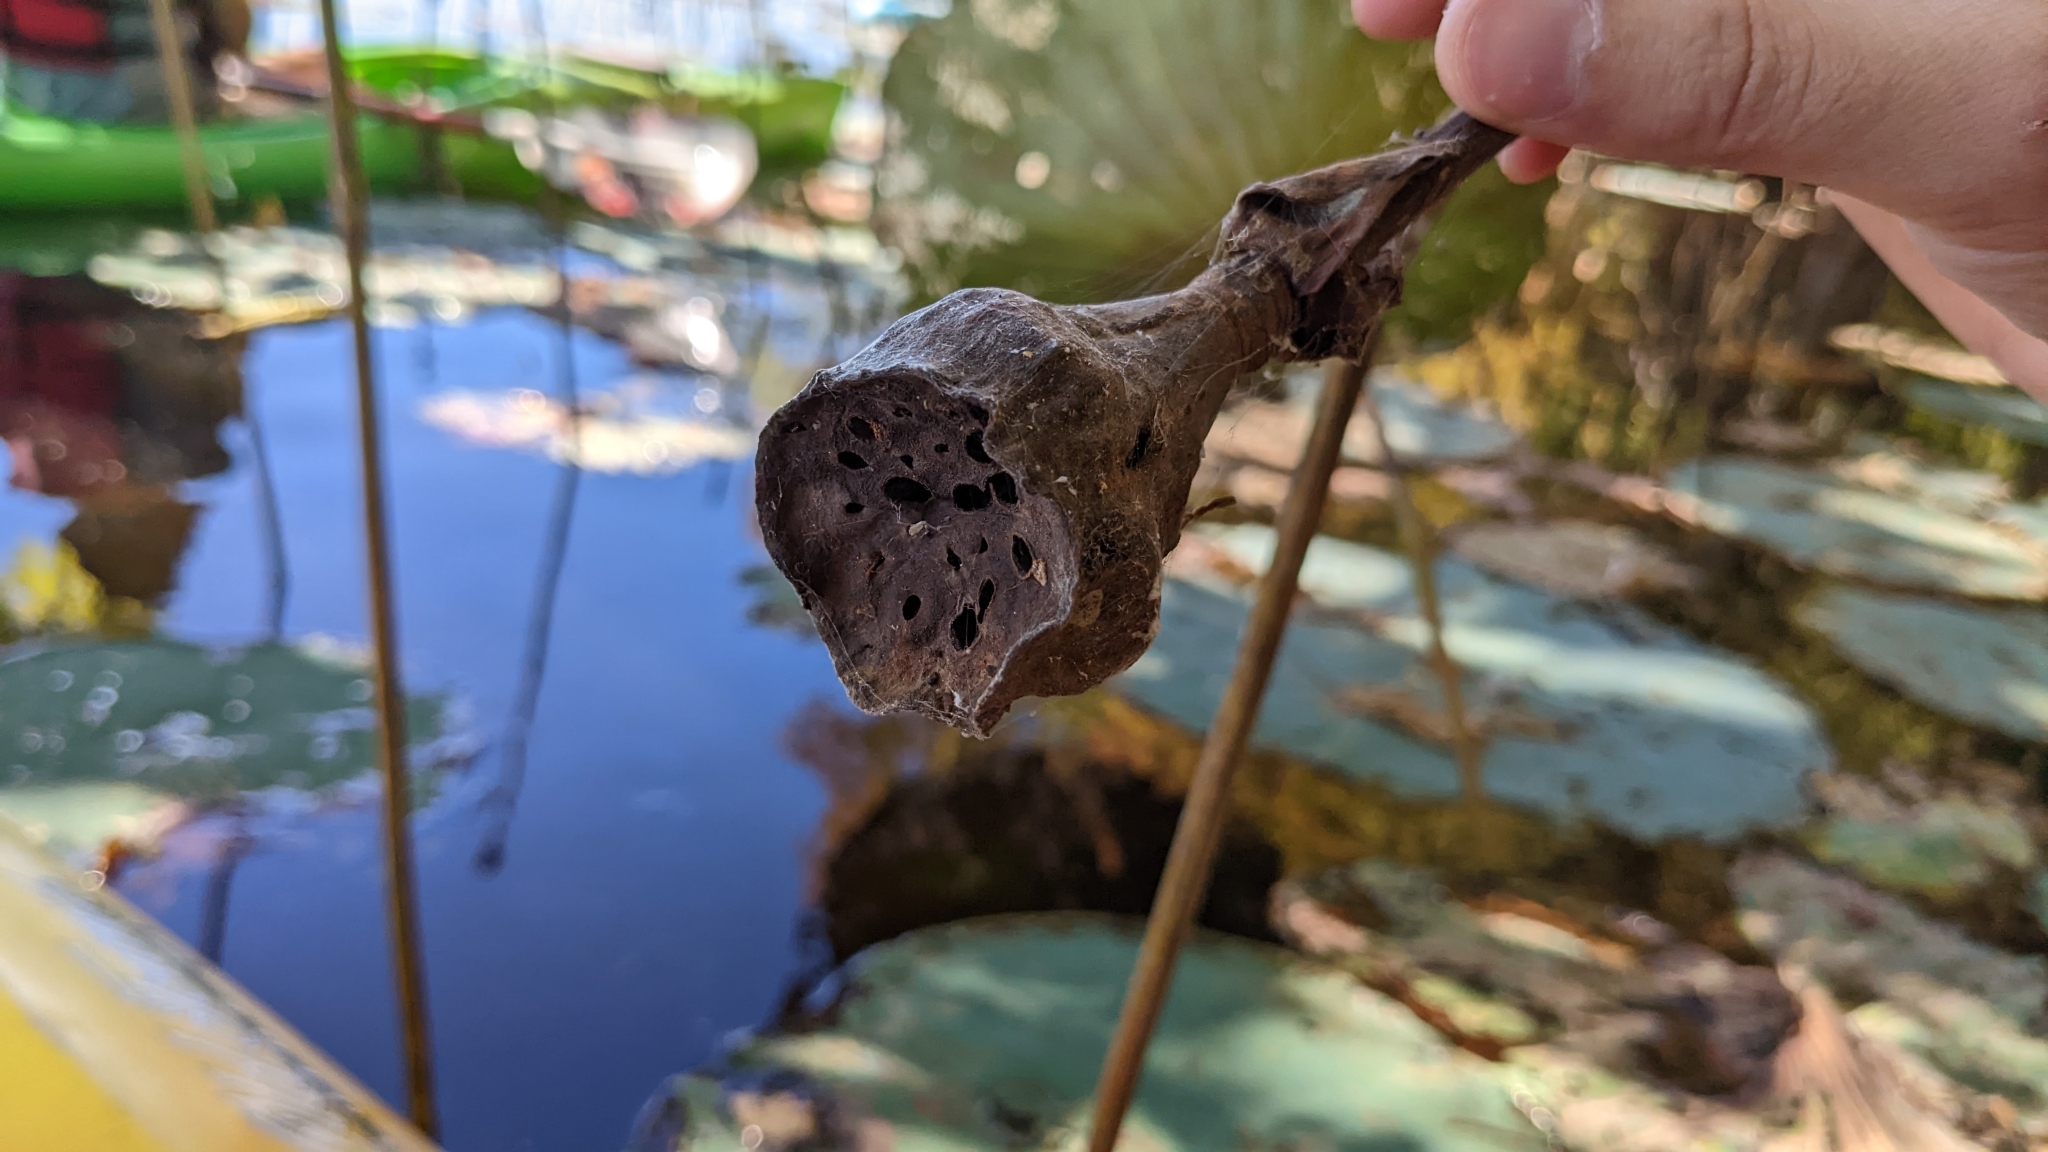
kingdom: Plantae
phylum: Tracheophyta
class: Magnoliopsida
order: Proteales
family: Nelumbonaceae
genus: Nelumbo
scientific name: Nelumbo lutea
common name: American lotus
